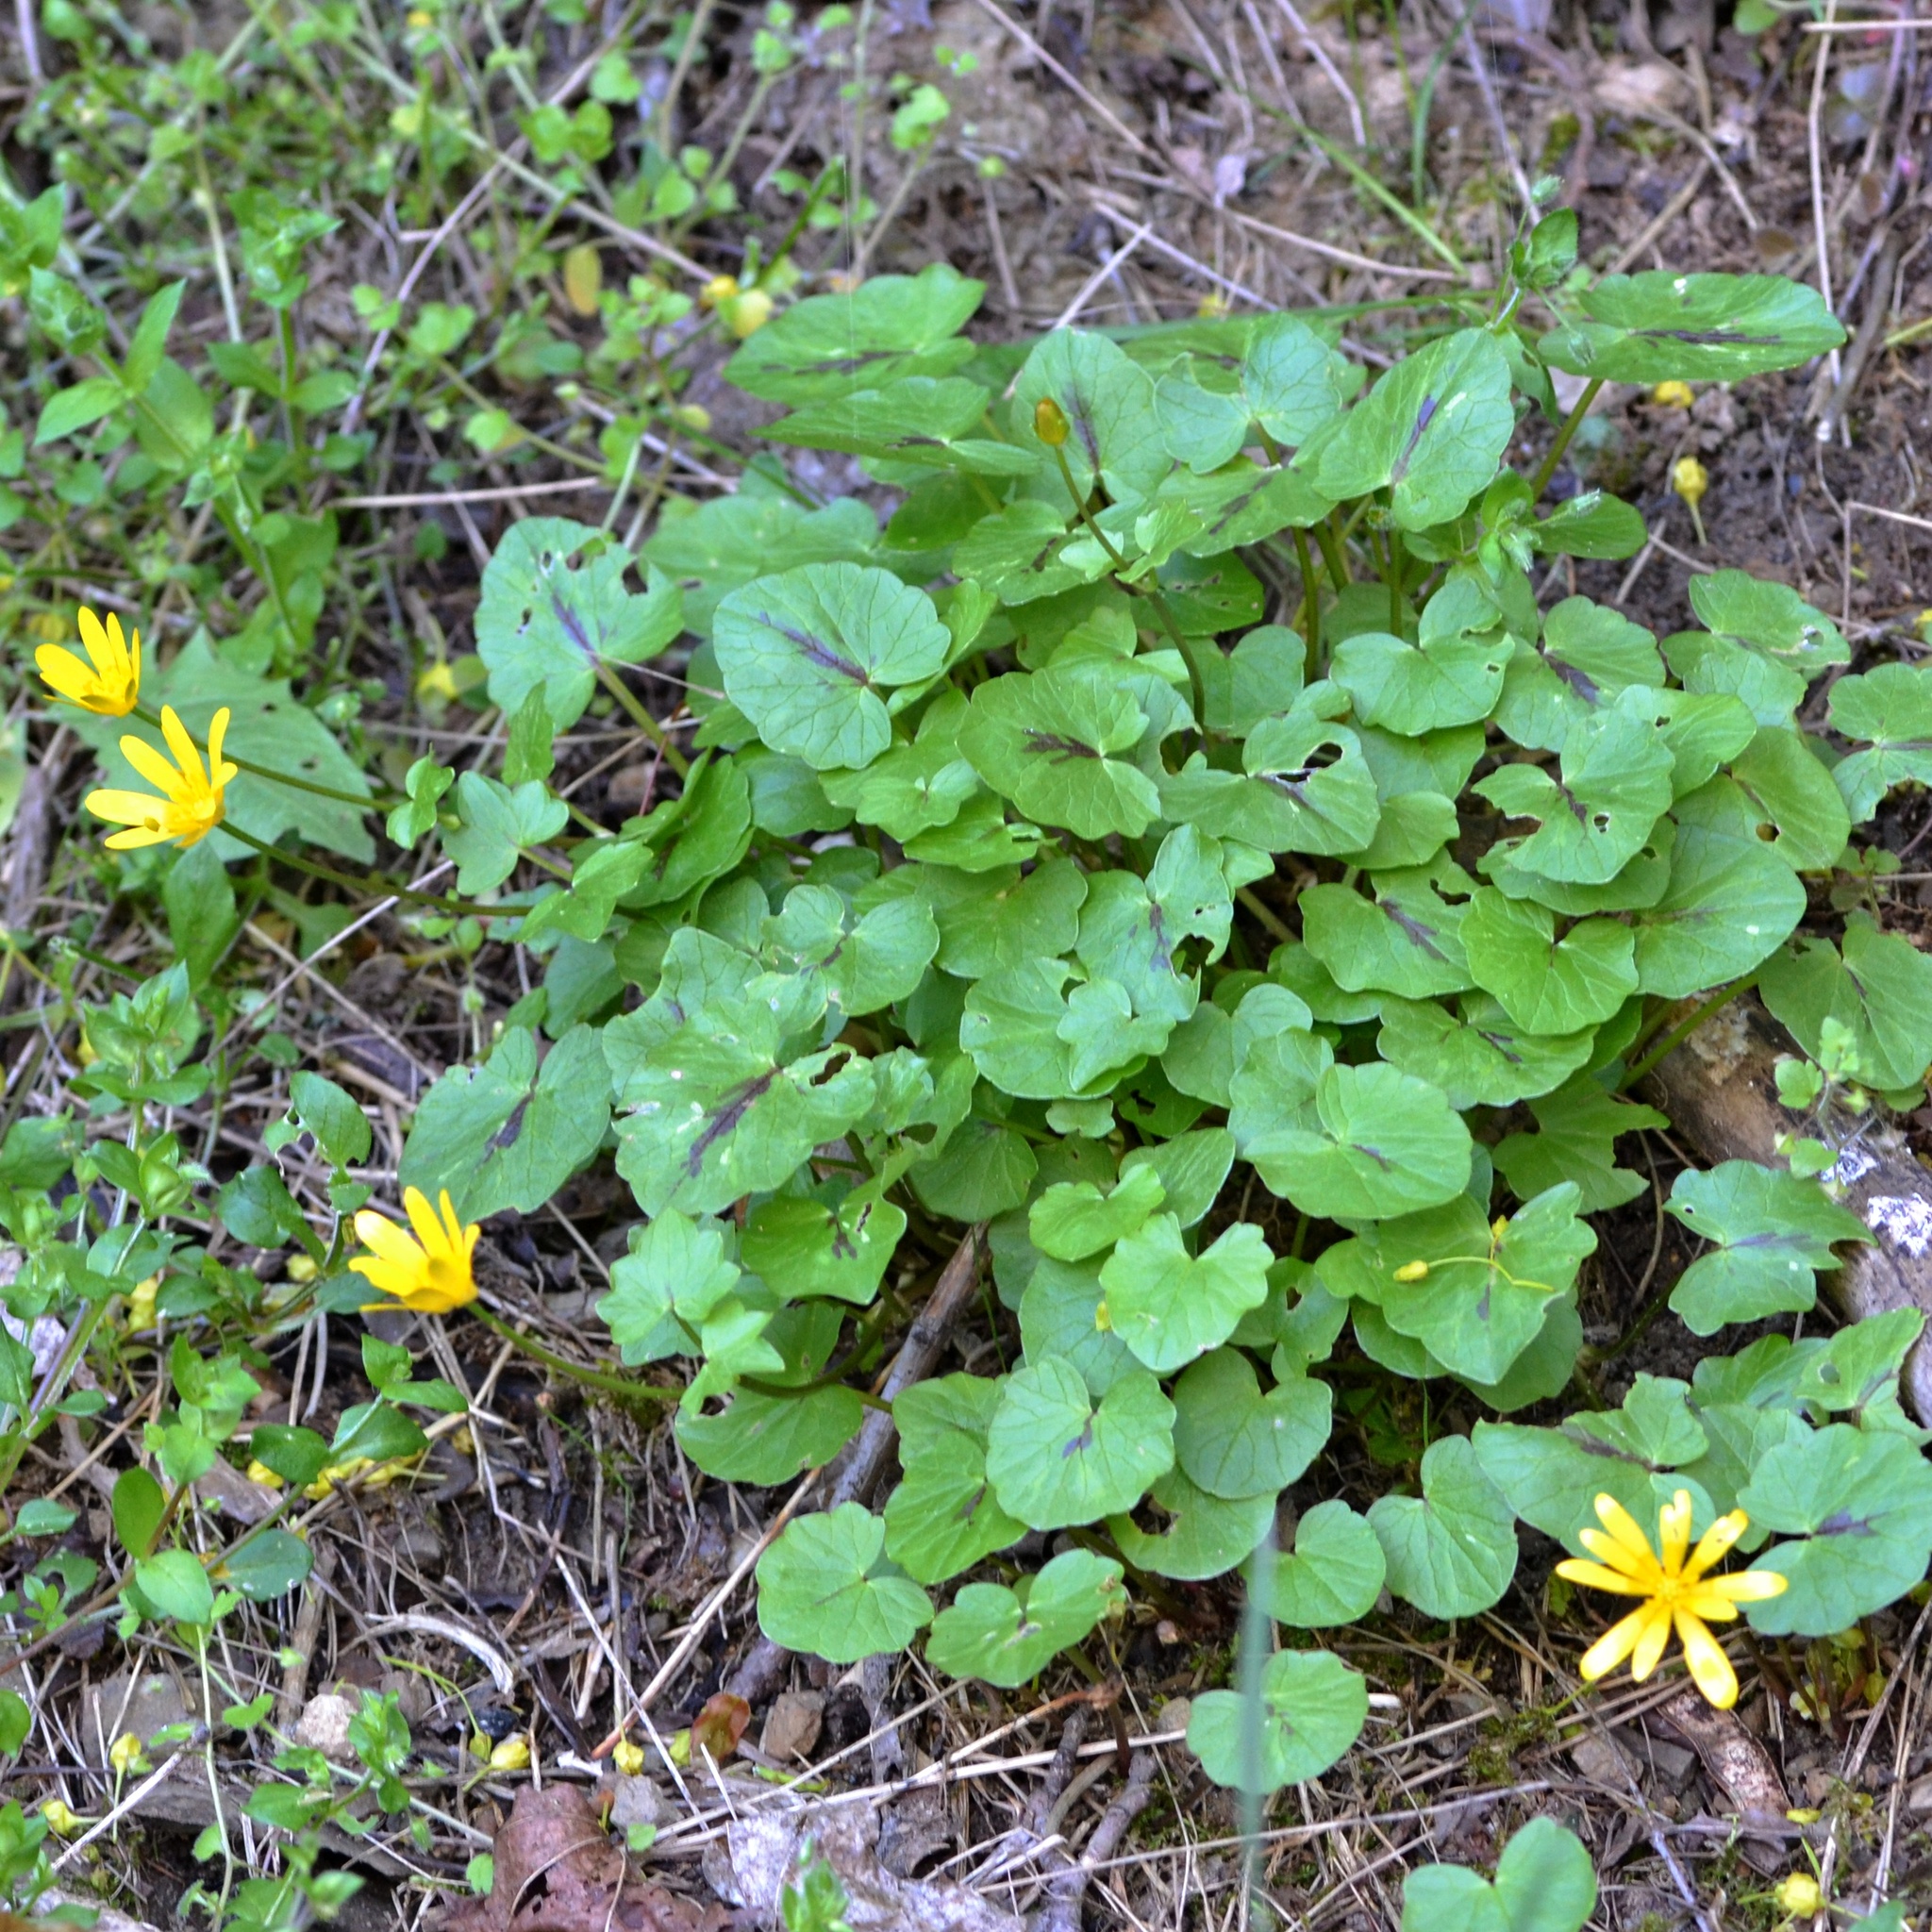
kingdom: Plantae
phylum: Tracheophyta
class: Magnoliopsida
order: Ranunculales
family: Ranunculaceae
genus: Ficaria
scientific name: Ficaria verna
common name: Lesser celandine
